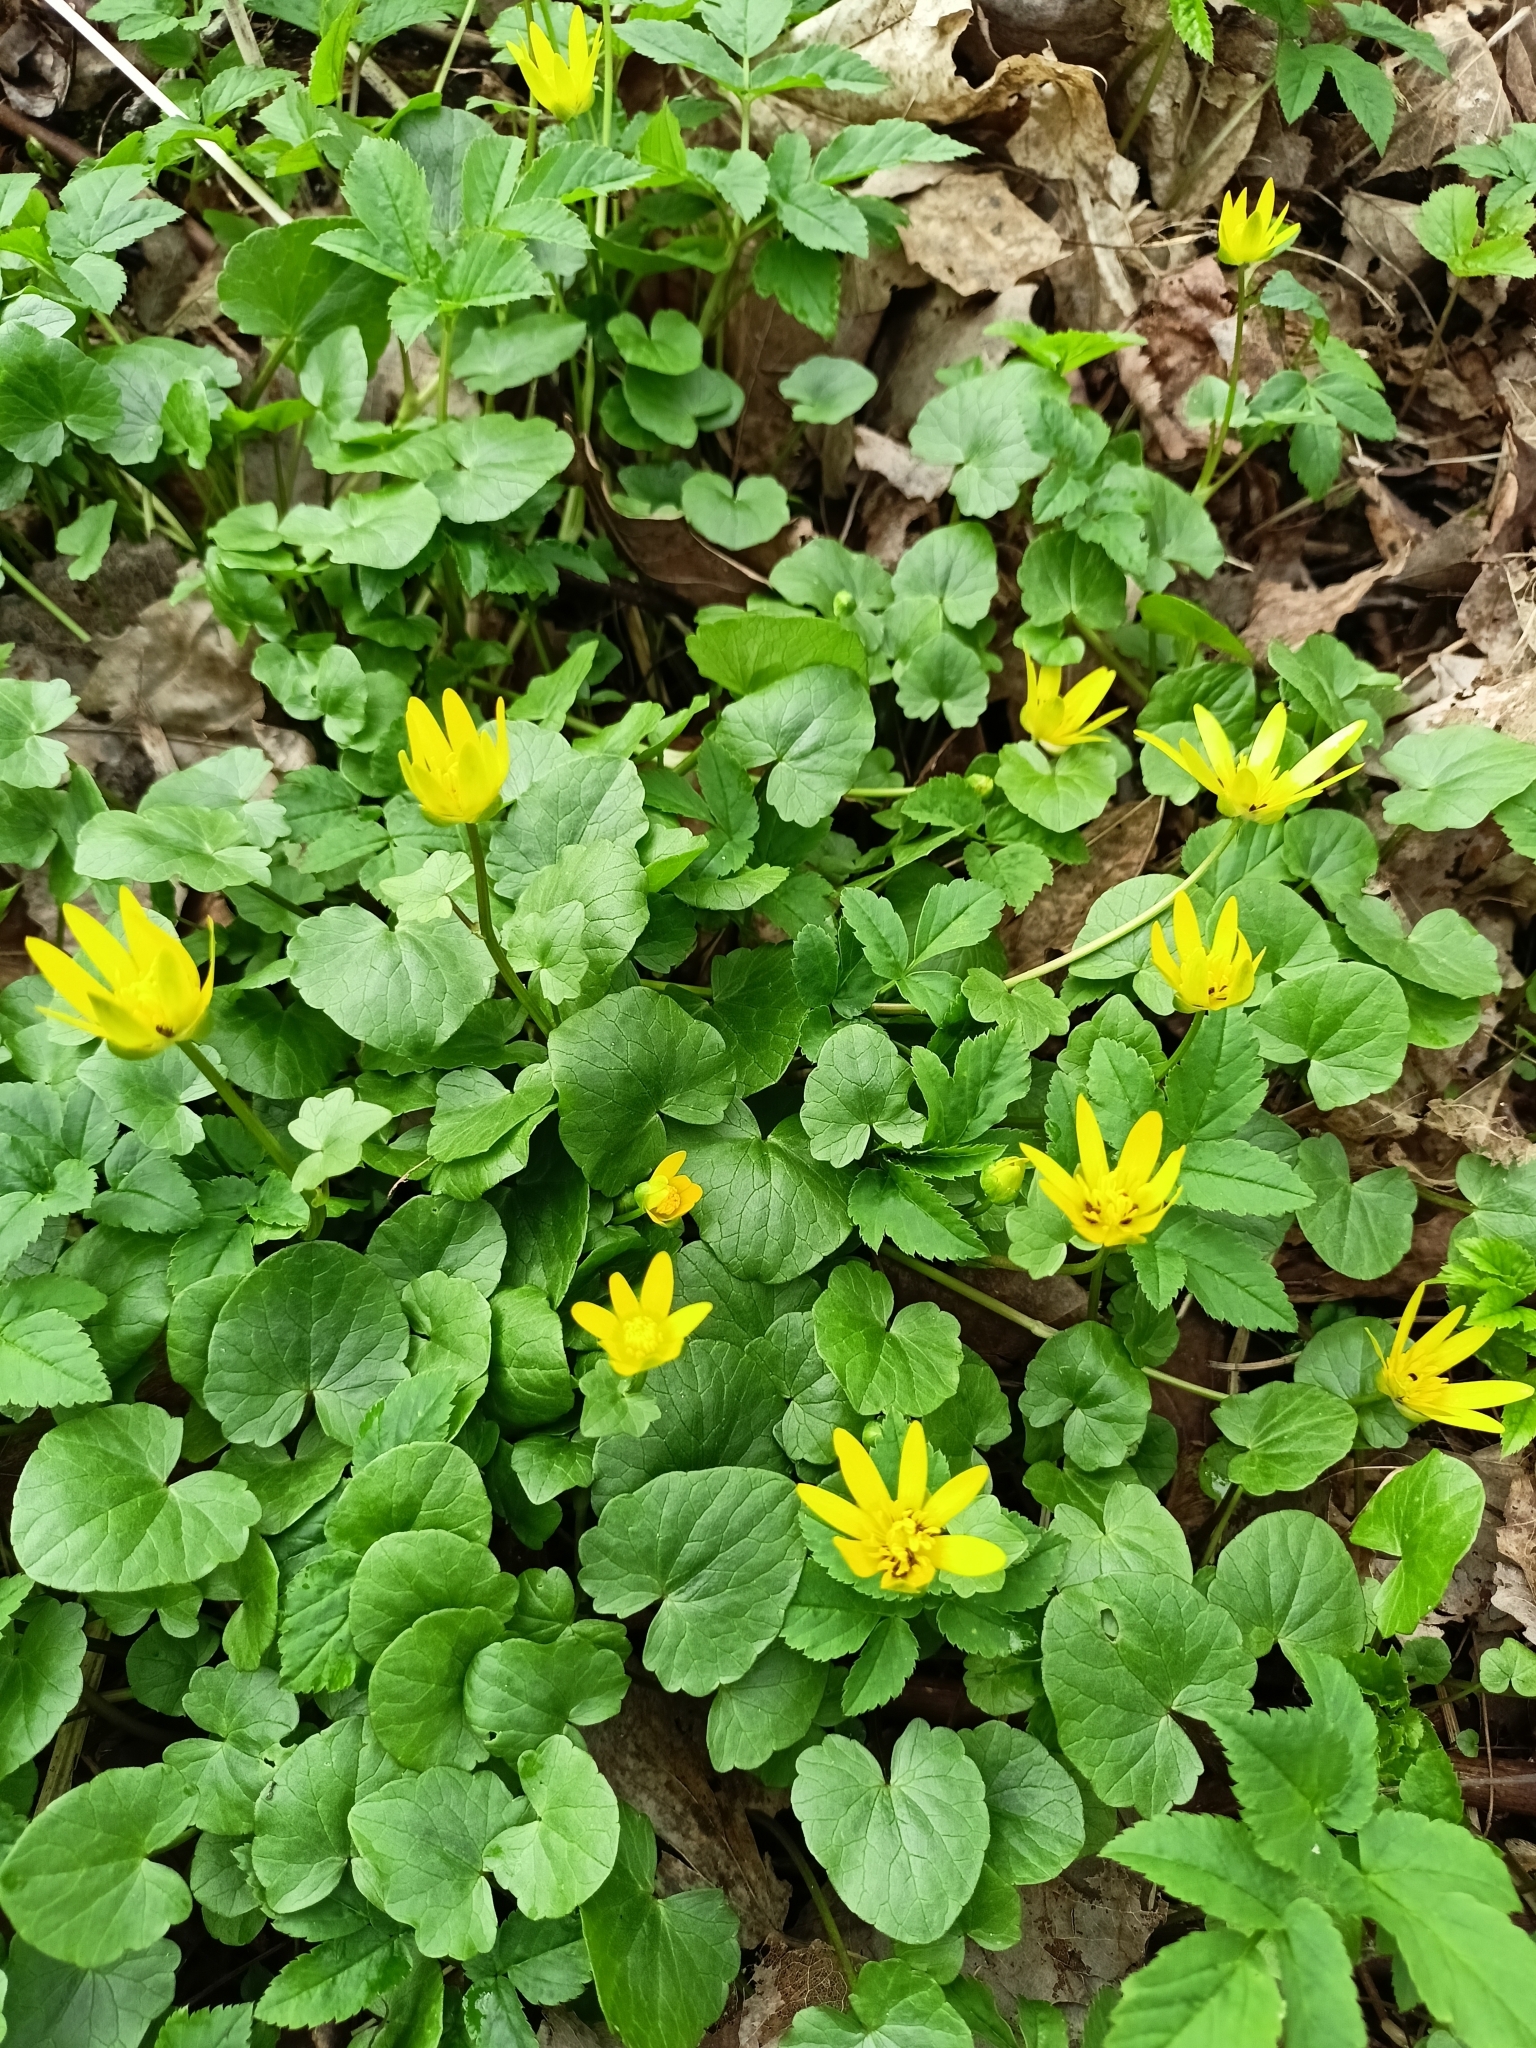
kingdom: Plantae
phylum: Tracheophyta
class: Magnoliopsida
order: Ranunculales
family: Ranunculaceae
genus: Ficaria
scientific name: Ficaria verna
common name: Lesser celandine
